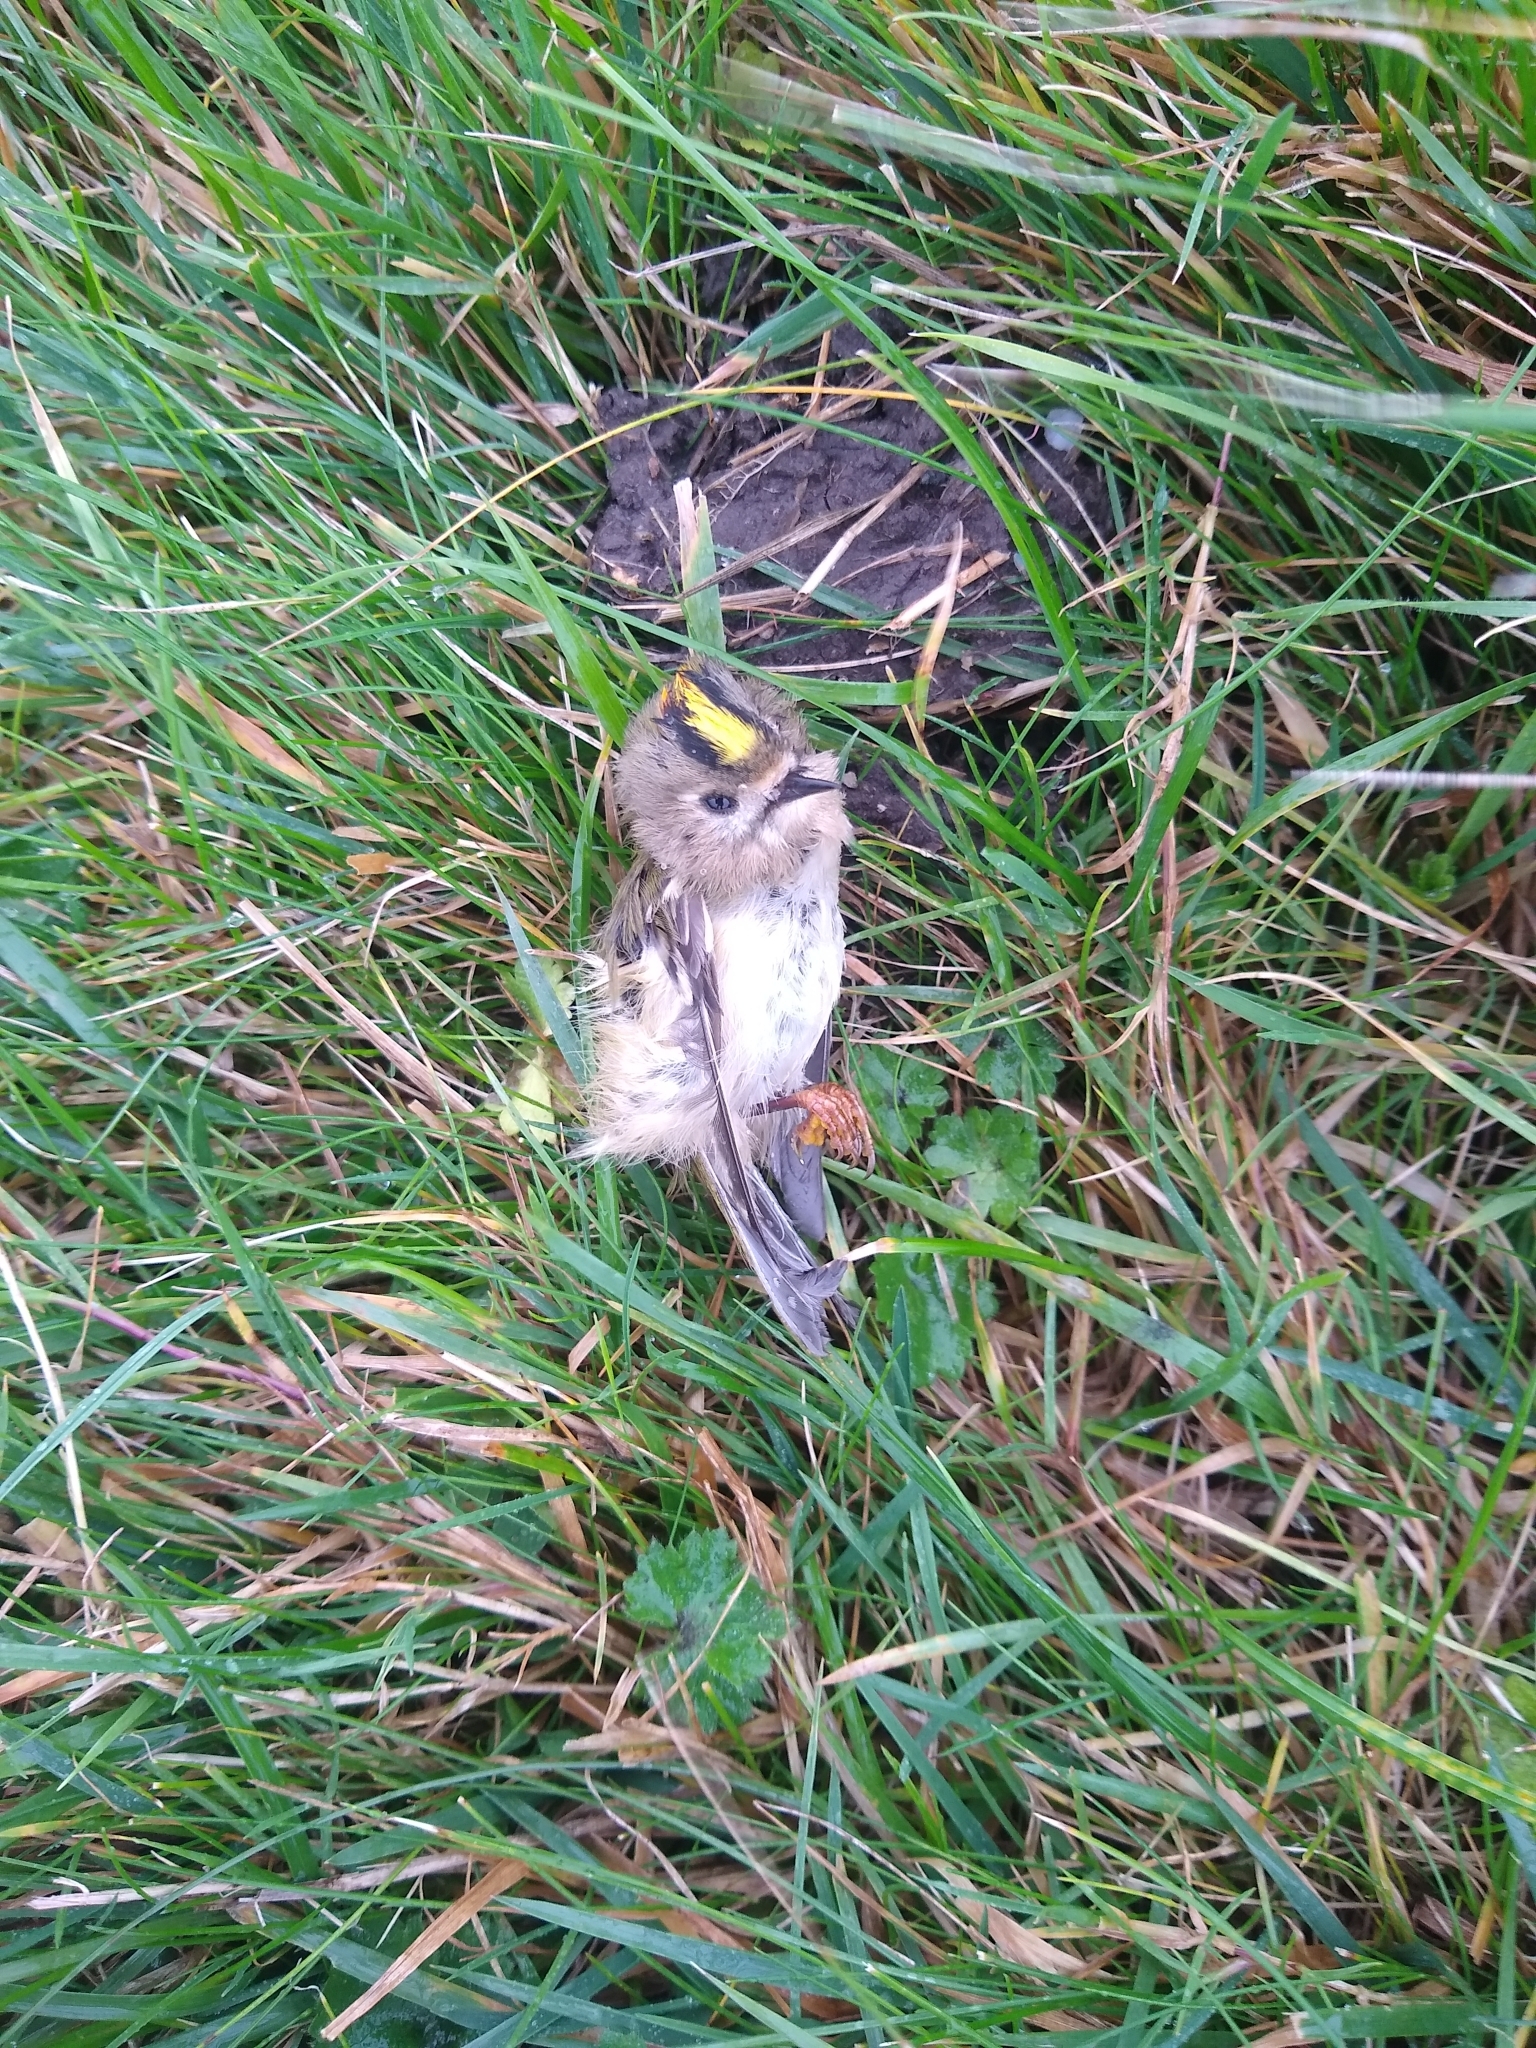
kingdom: Animalia
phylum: Chordata
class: Aves
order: Passeriformes
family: Regulidae
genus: Regulus
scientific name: Regulus regulus
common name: Goldcrest
